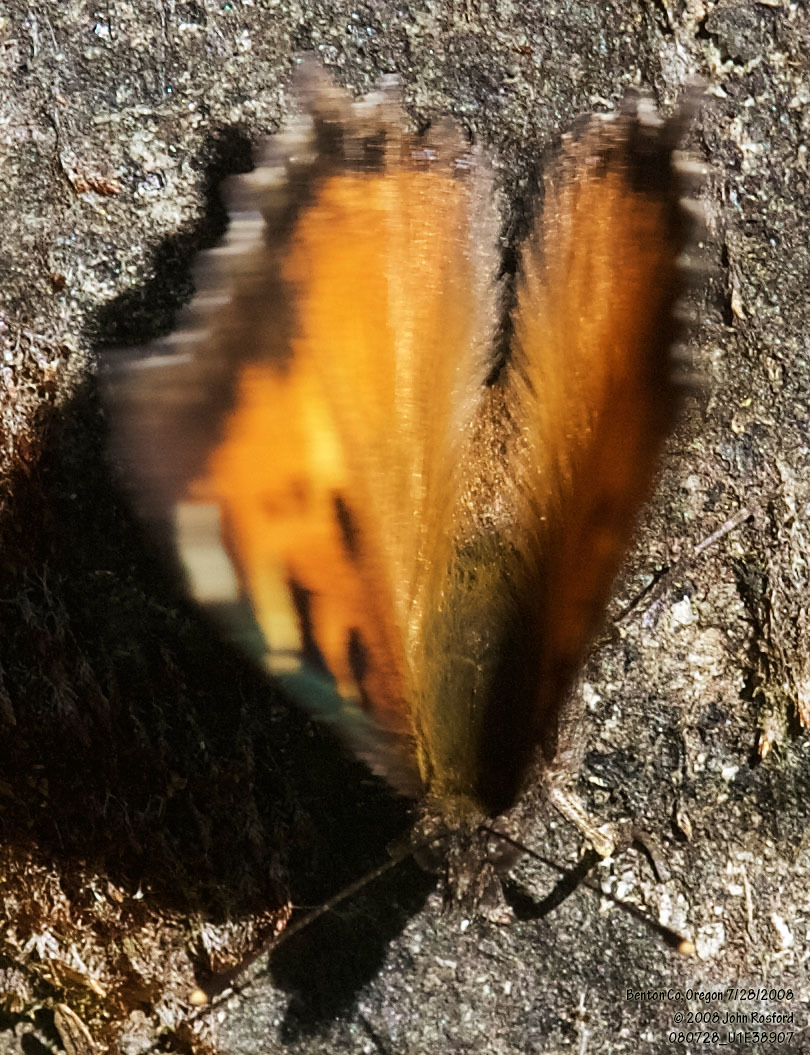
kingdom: Animalia
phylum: Arthropoda
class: Insecta
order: Lepidoptera
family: Nymphalidae
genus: Nymphalis
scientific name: Nymphalis californica
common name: California tortoiseshell
